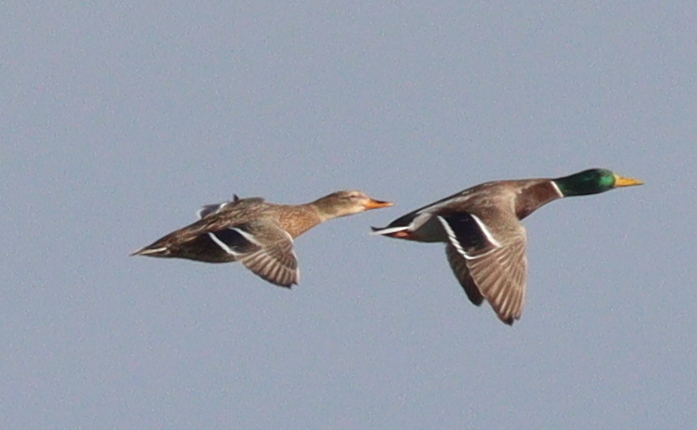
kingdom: Animalia
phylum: Chordata
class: Aves
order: Anseriformes
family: Anatidae
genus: Anas
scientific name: Anas platyrhynchos
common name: Mallard
